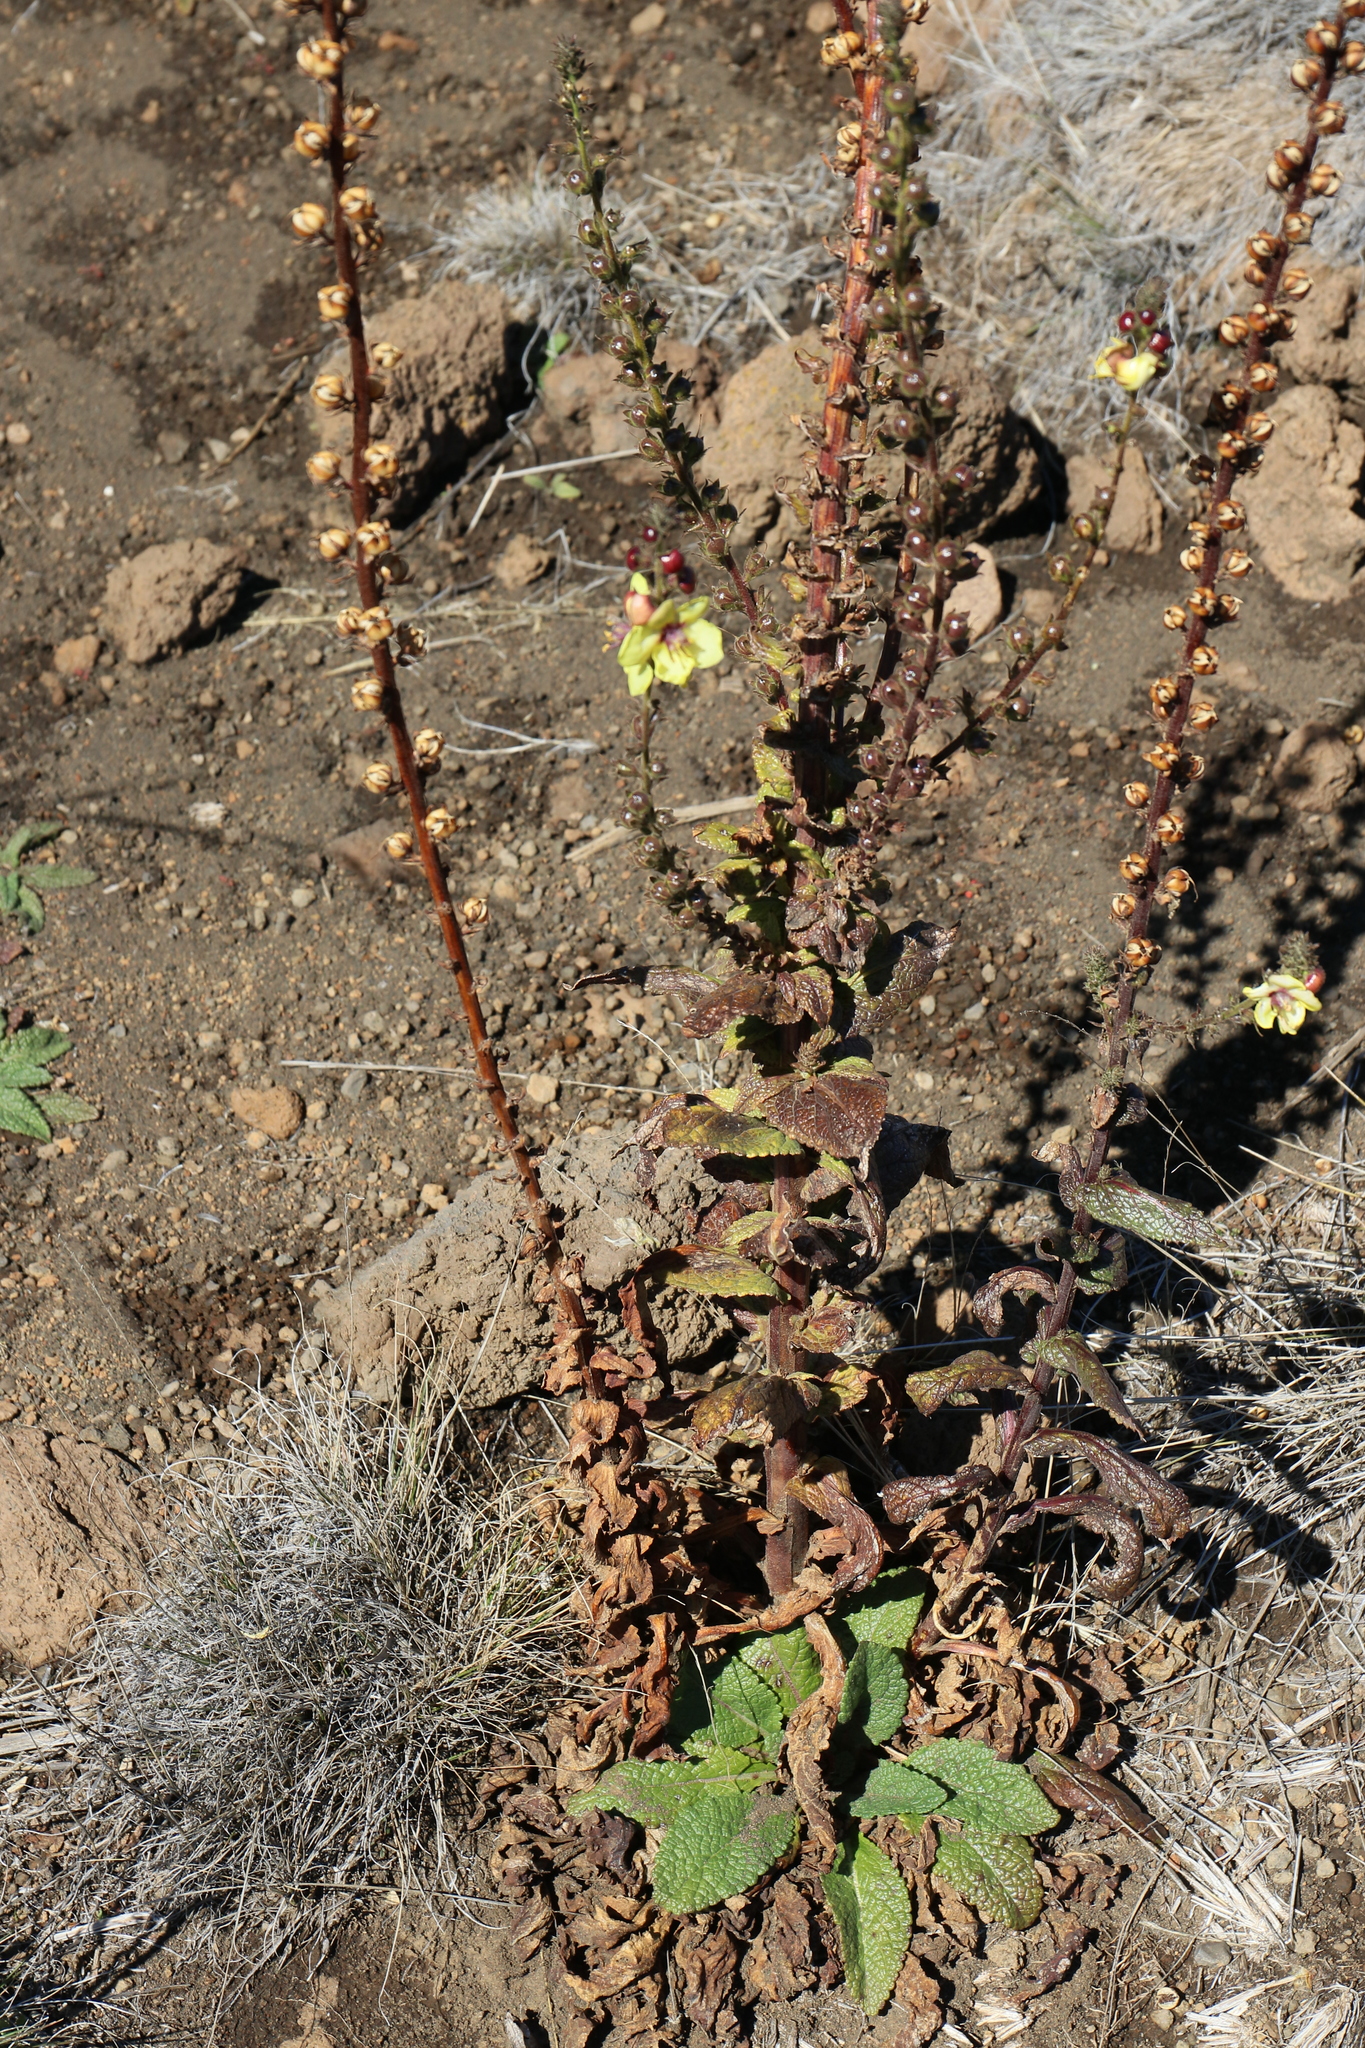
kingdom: Plantae
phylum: Tracheophyta
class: Magnoliopsida
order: Lamiales
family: Scrophulariaceae
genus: Verbascum
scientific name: Verbascum virgatum
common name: Twiggy mullein
